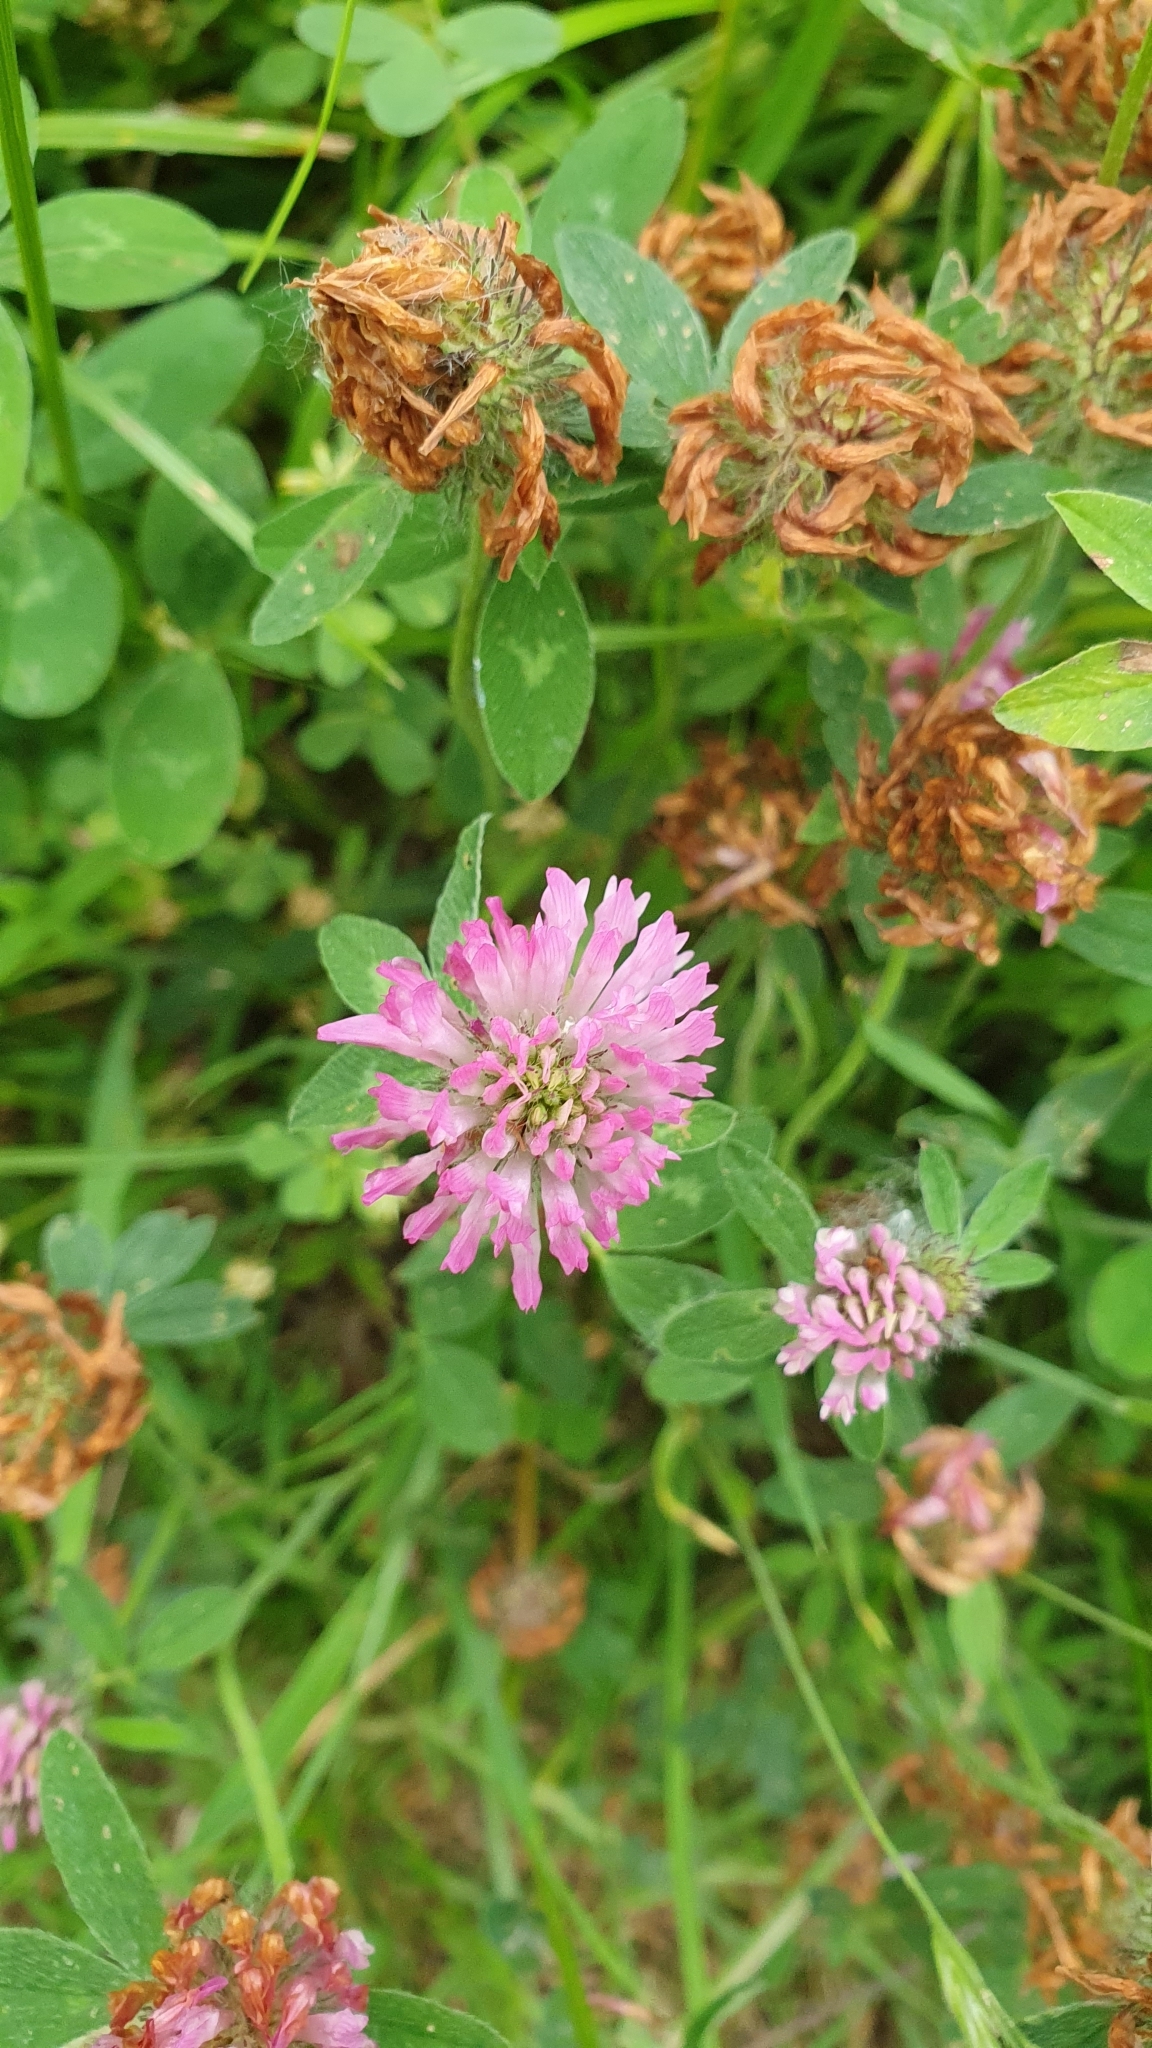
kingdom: Plantae
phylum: Tracheophyta
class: Magnoliopsida
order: Fabales
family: Fabaceae
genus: Trifolium
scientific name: Trifolium pratense
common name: Red clover
